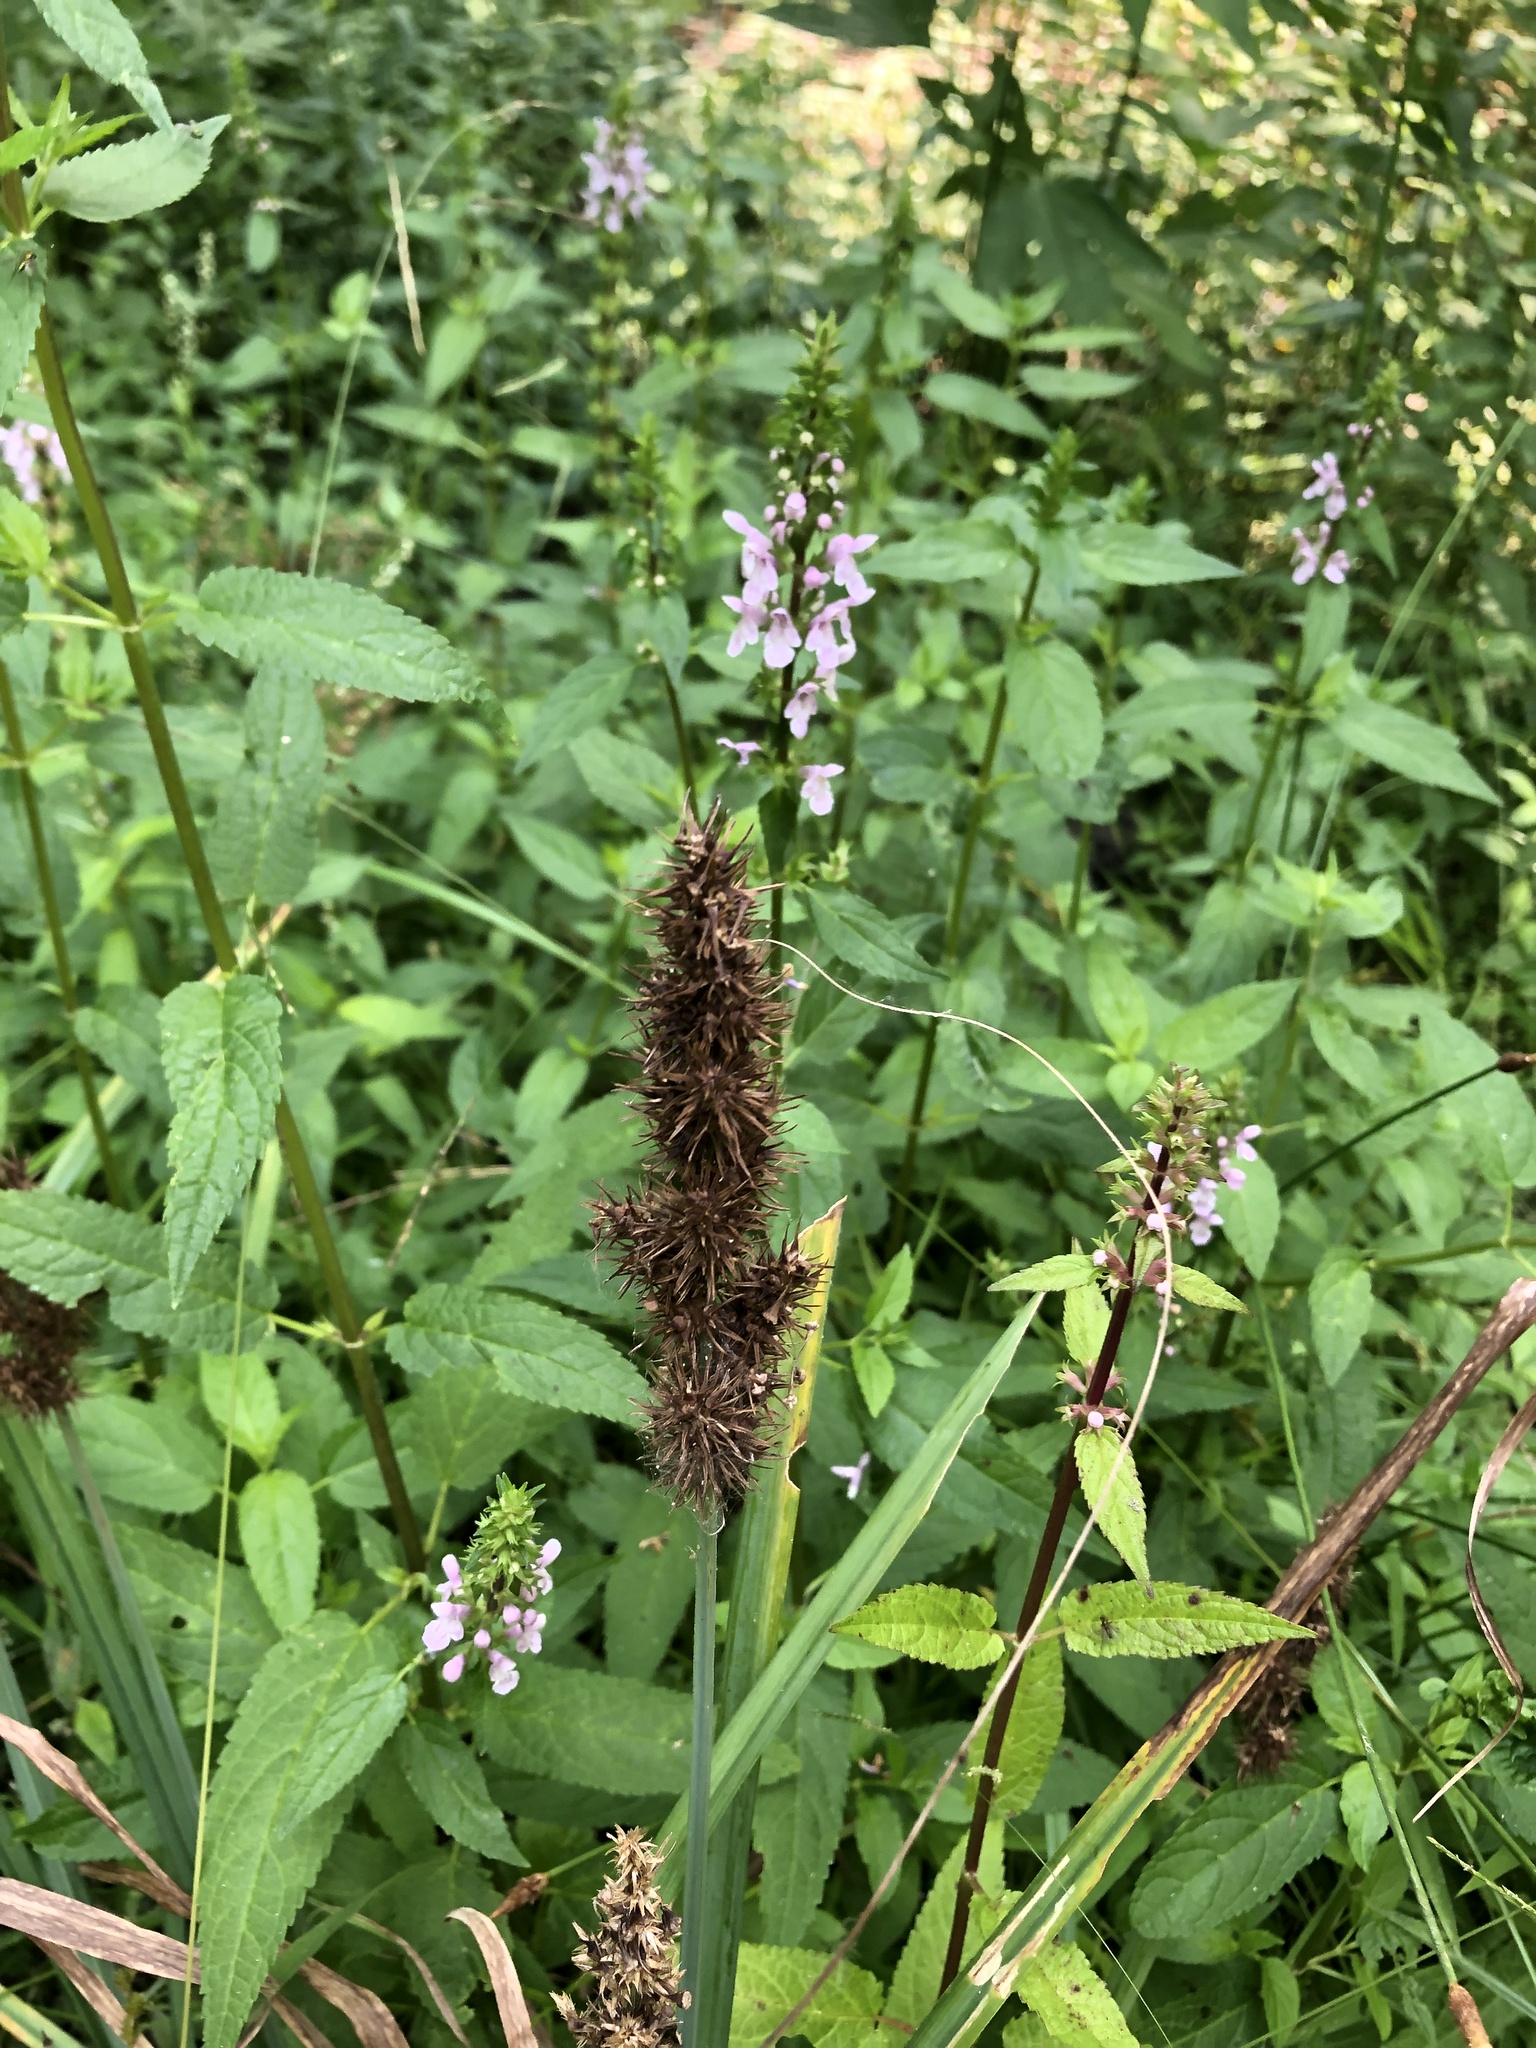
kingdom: Plantae
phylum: Tracheophyta
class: Liliopsida
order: Poales
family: Cyperaceae
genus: Carex
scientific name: Carex crus-corvi
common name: Crow-spur sedge
